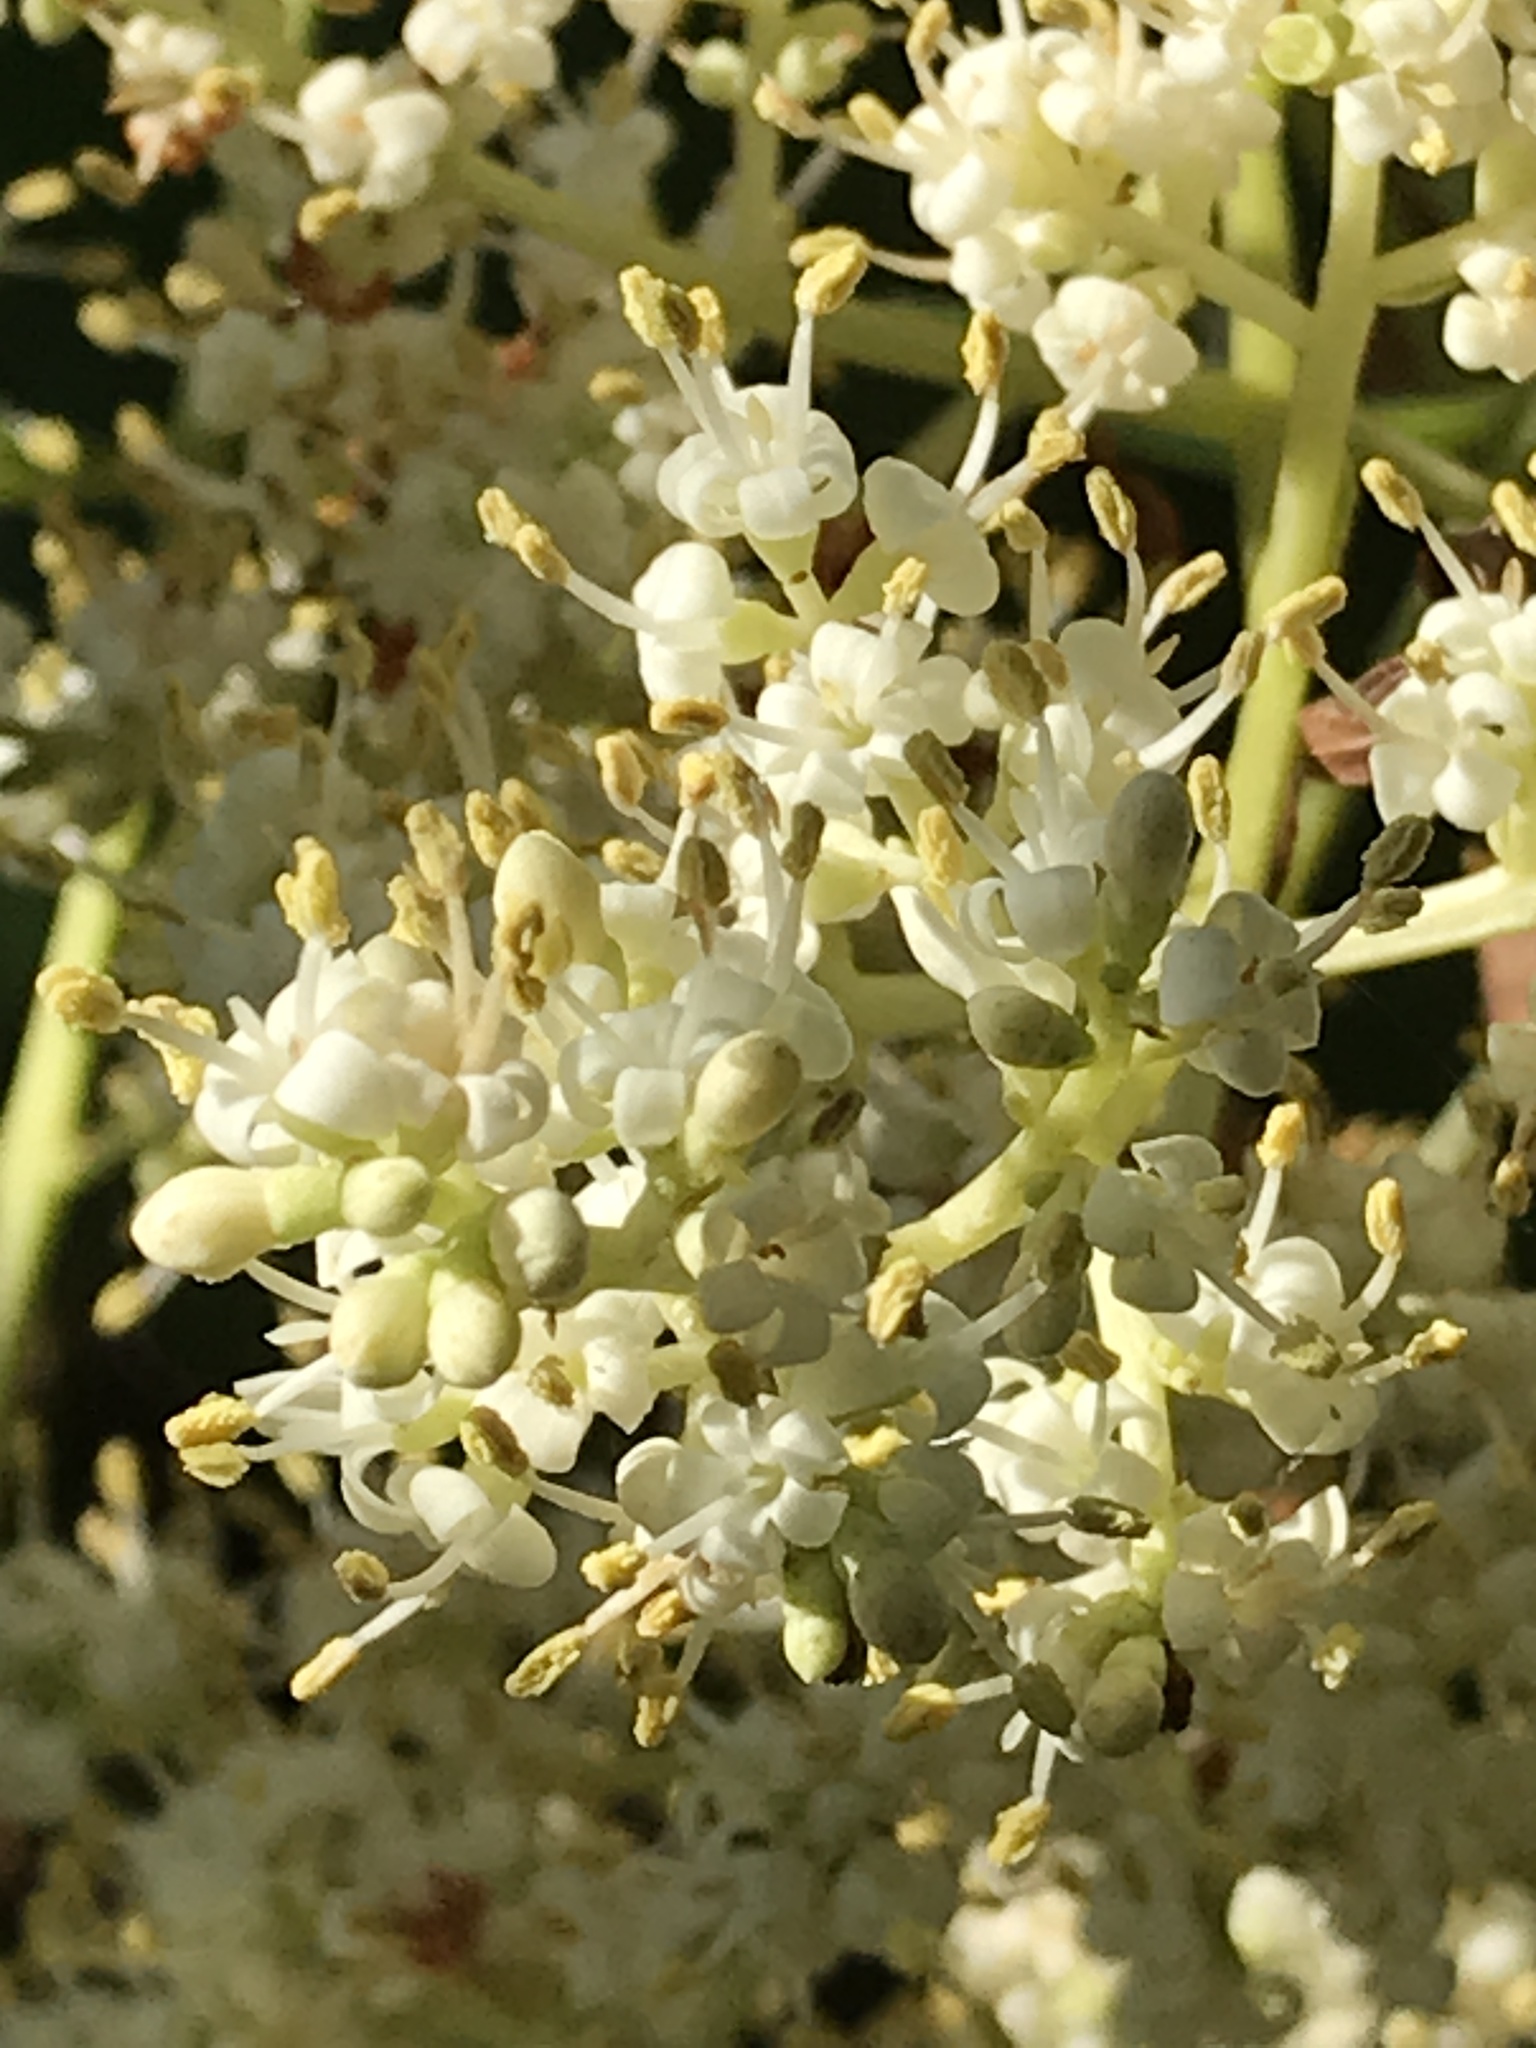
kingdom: Plantae
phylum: Tracheophyta
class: Magnoliopsida
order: Lamiales
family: Oleaceae
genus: Ligustrum
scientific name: Ligustrum lucidum
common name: Glossy privet
